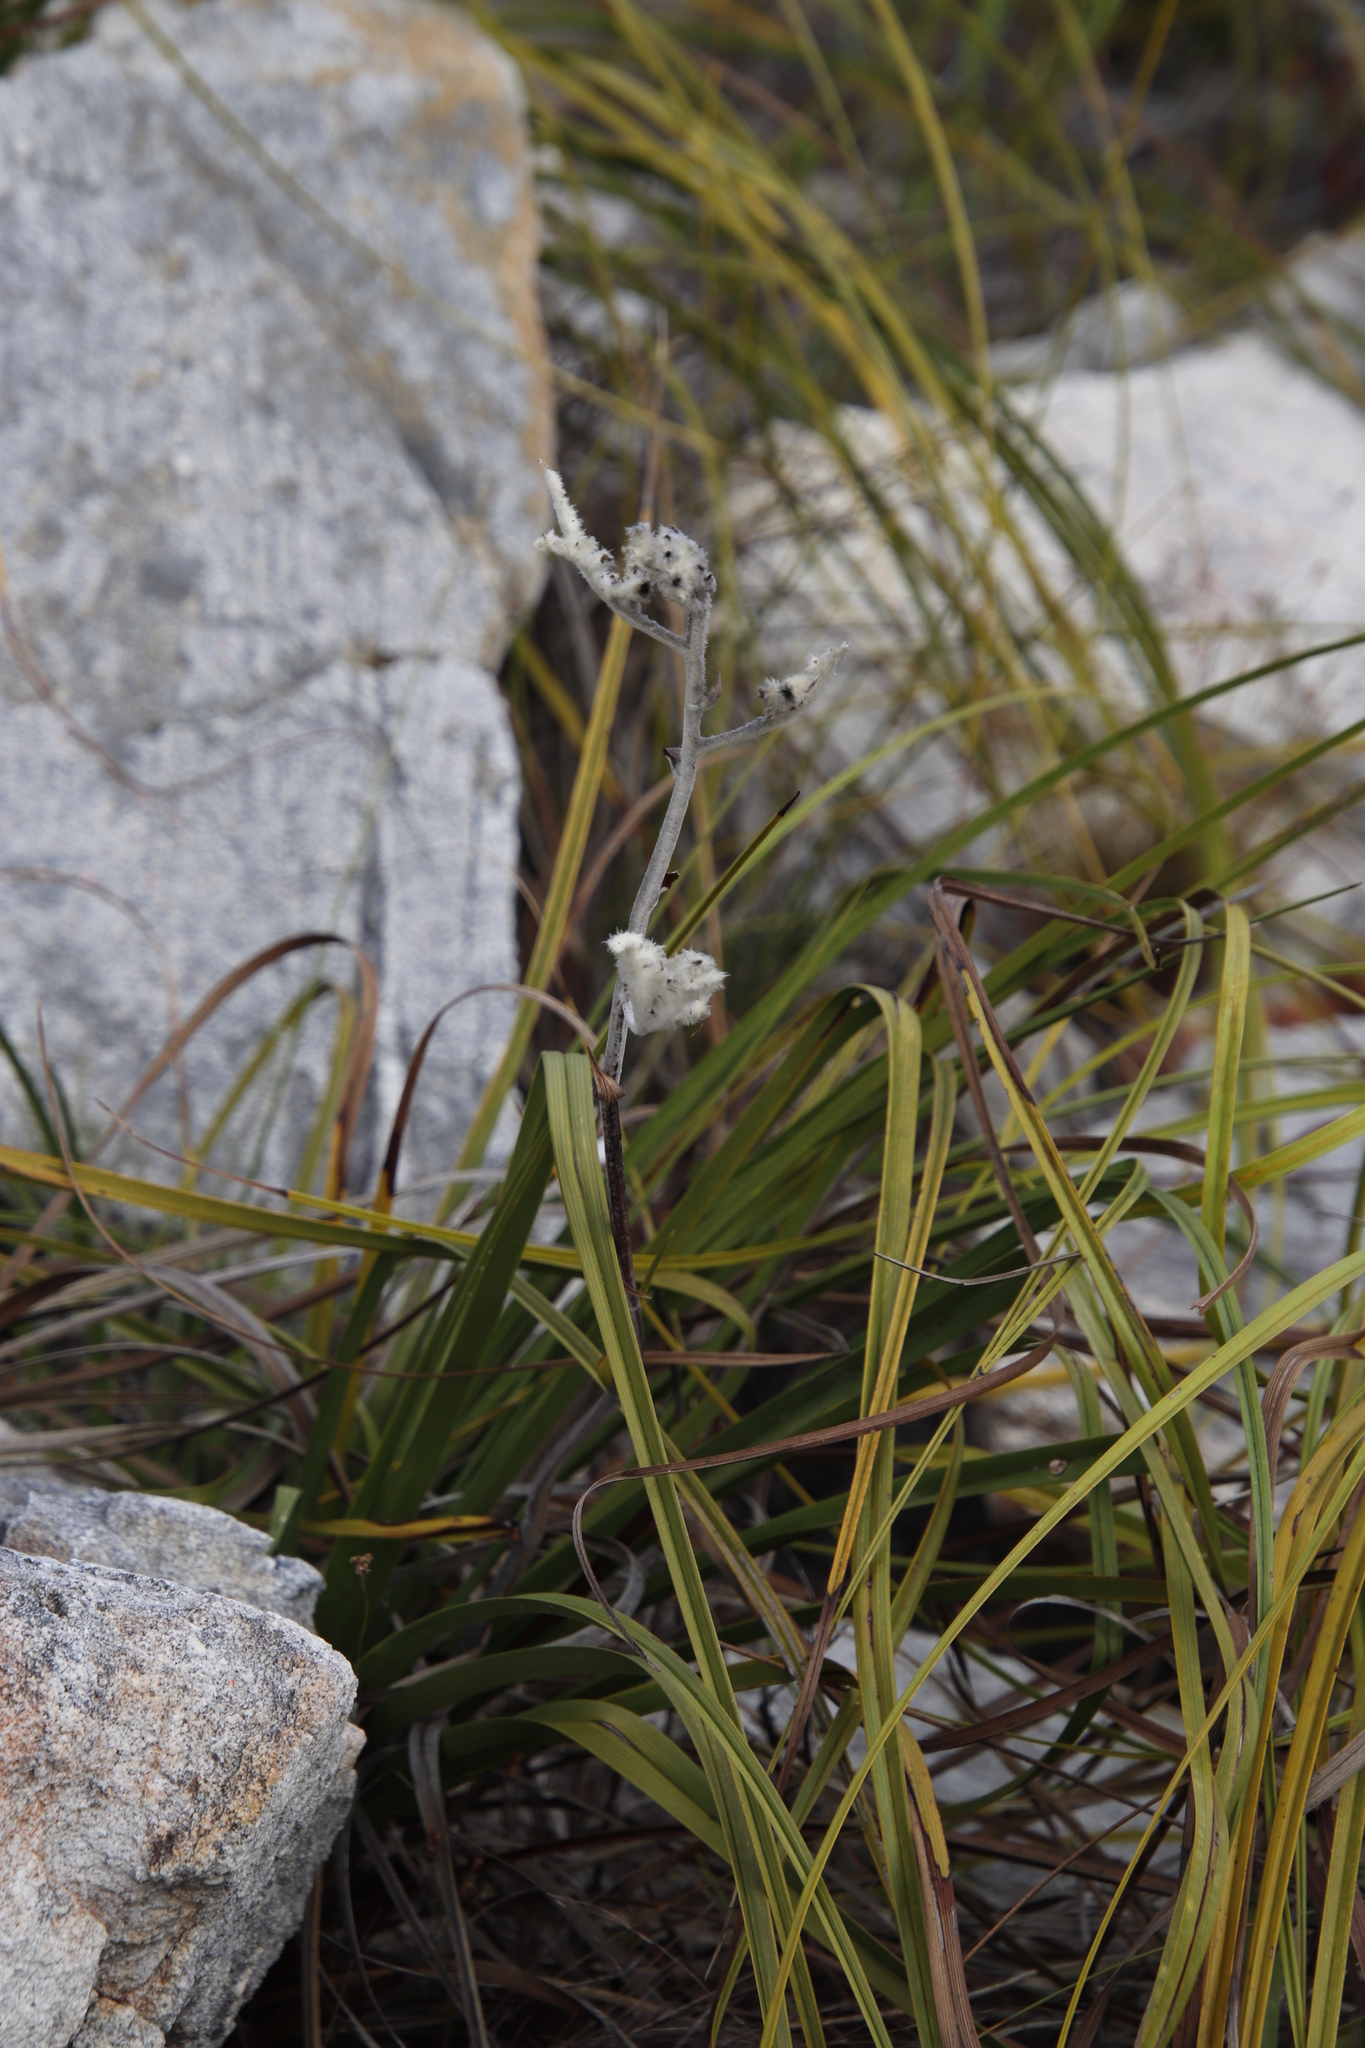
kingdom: Plantae
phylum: Tracheophyta
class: Liliopsida
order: Asparagales
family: Lanariaceae
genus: Lanaria
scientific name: Lanaria lanata
